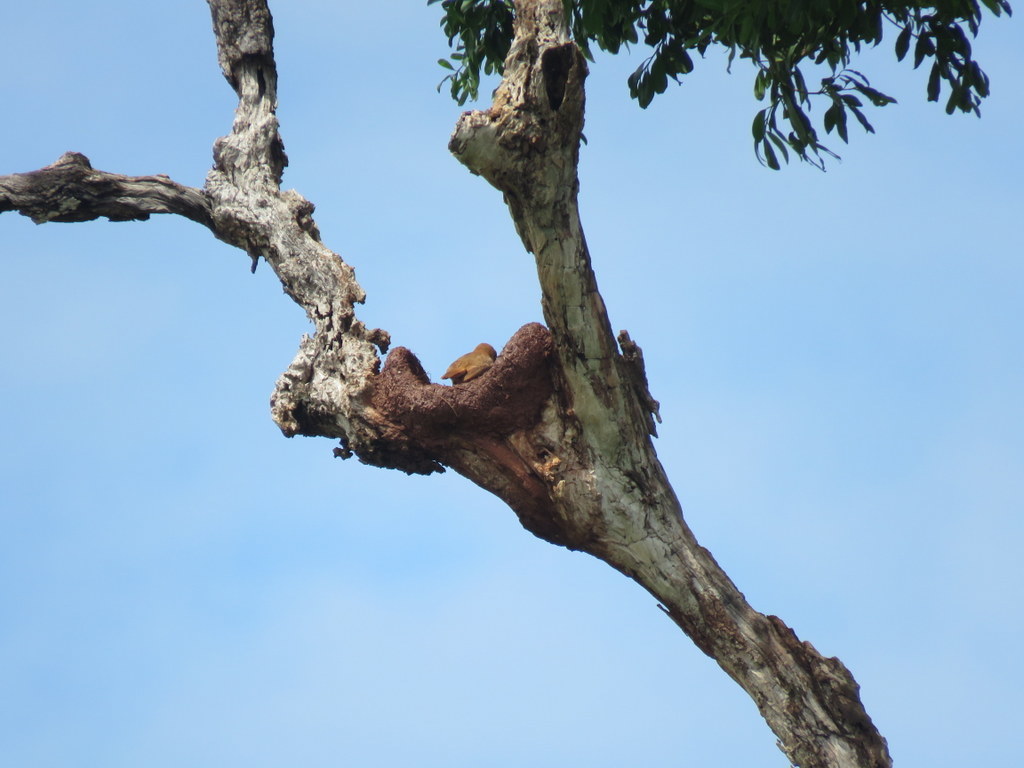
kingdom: Animalia
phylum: Chordata
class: Aves
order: Passeriformes
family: Furnariidae
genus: Furnarius
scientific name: Furnarius rufus
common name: Rufous hornero
